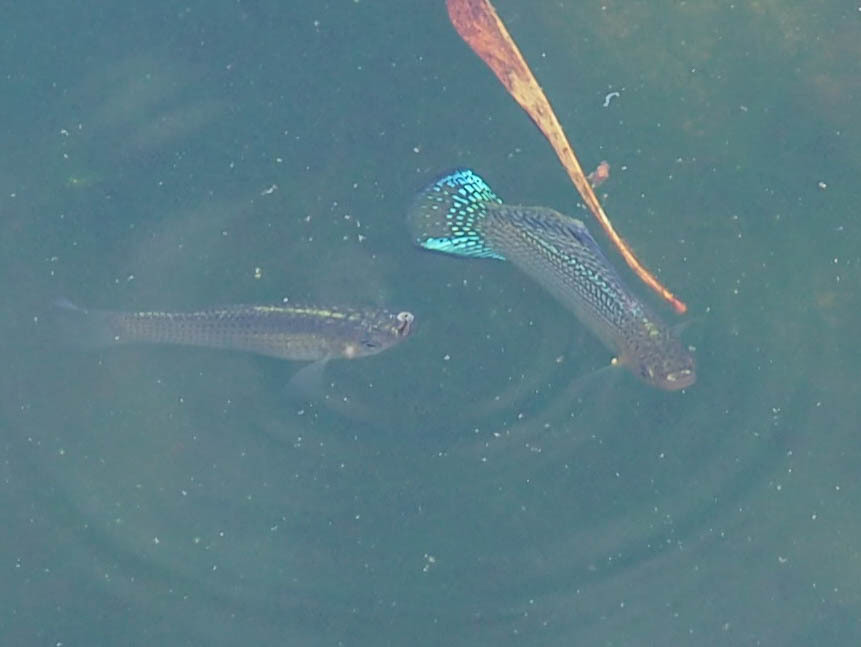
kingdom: Animalia
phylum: Chordata
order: Cyprinodontiformes
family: Poeciliidae
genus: Poecilia
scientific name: Poecilia latipinna
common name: Sailfin molly
